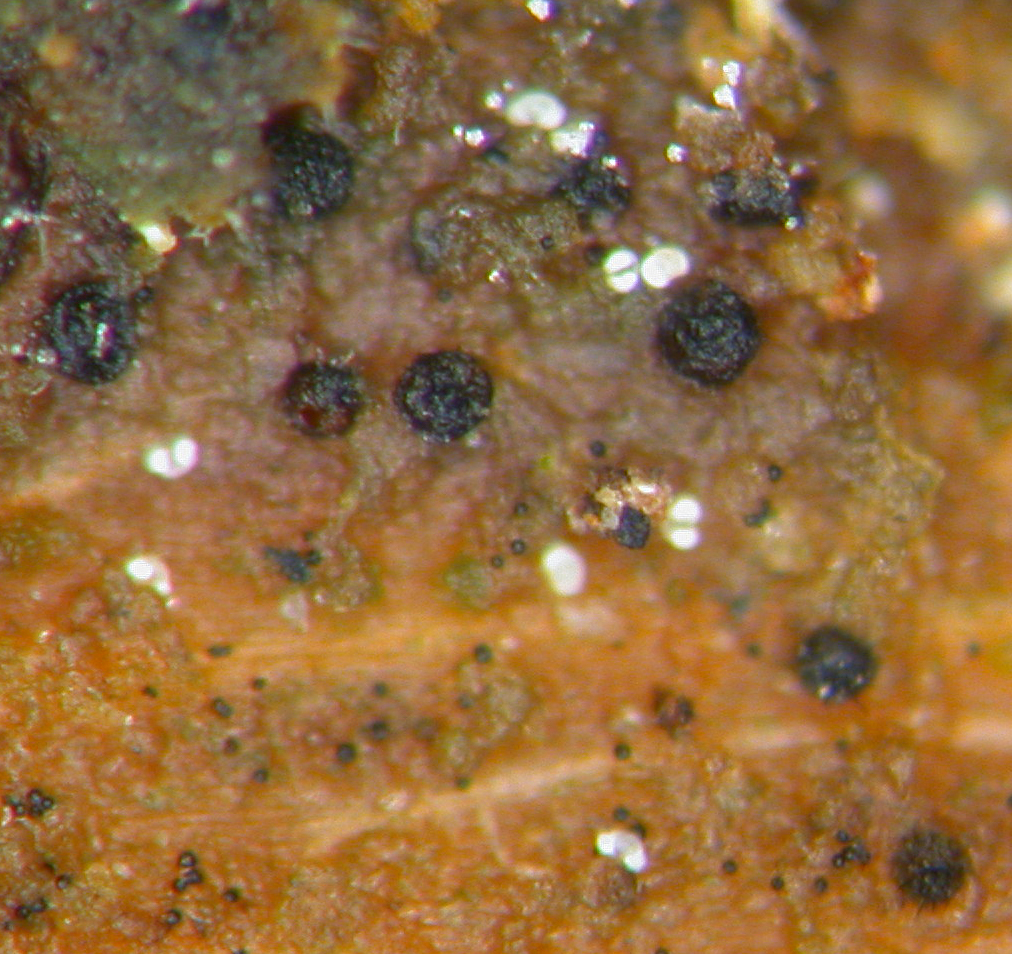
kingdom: Fungi
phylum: Ascomycota
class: Eurotiomycetes
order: Chaetothyriales
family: Herpotrichiellaceae
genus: Capronia
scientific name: Capronia pilosella
